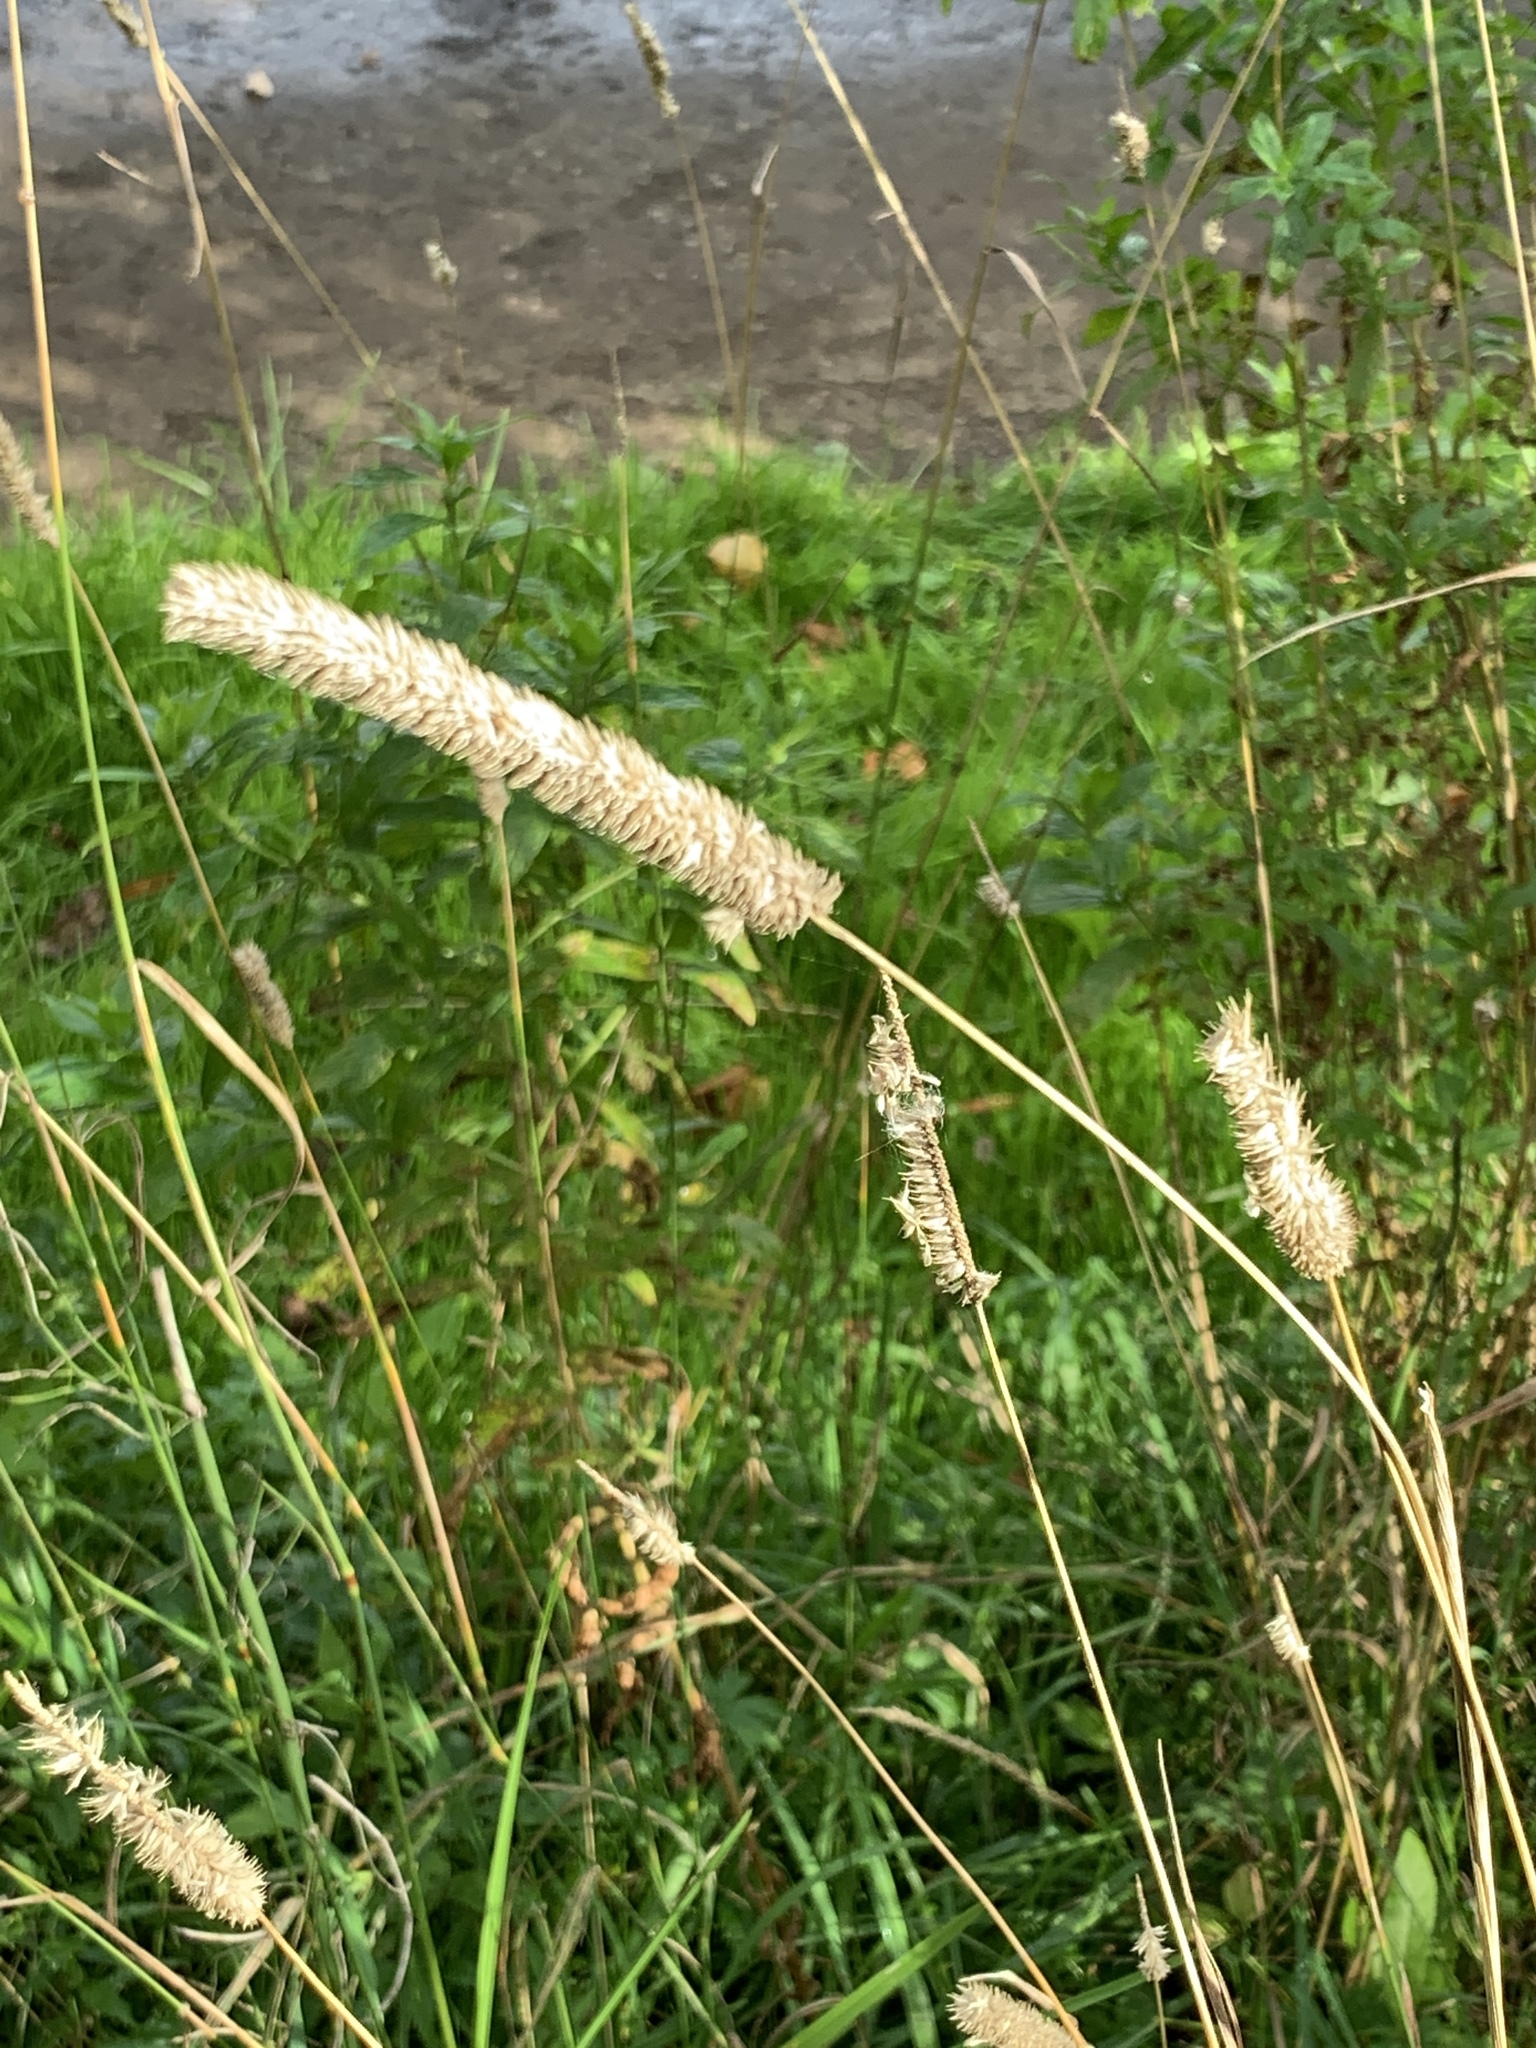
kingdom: Plantae
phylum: Tracheophyta
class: Liliopsida
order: Poales
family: Poaceae
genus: Phleum
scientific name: Phleum pratense
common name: Timothy grass
